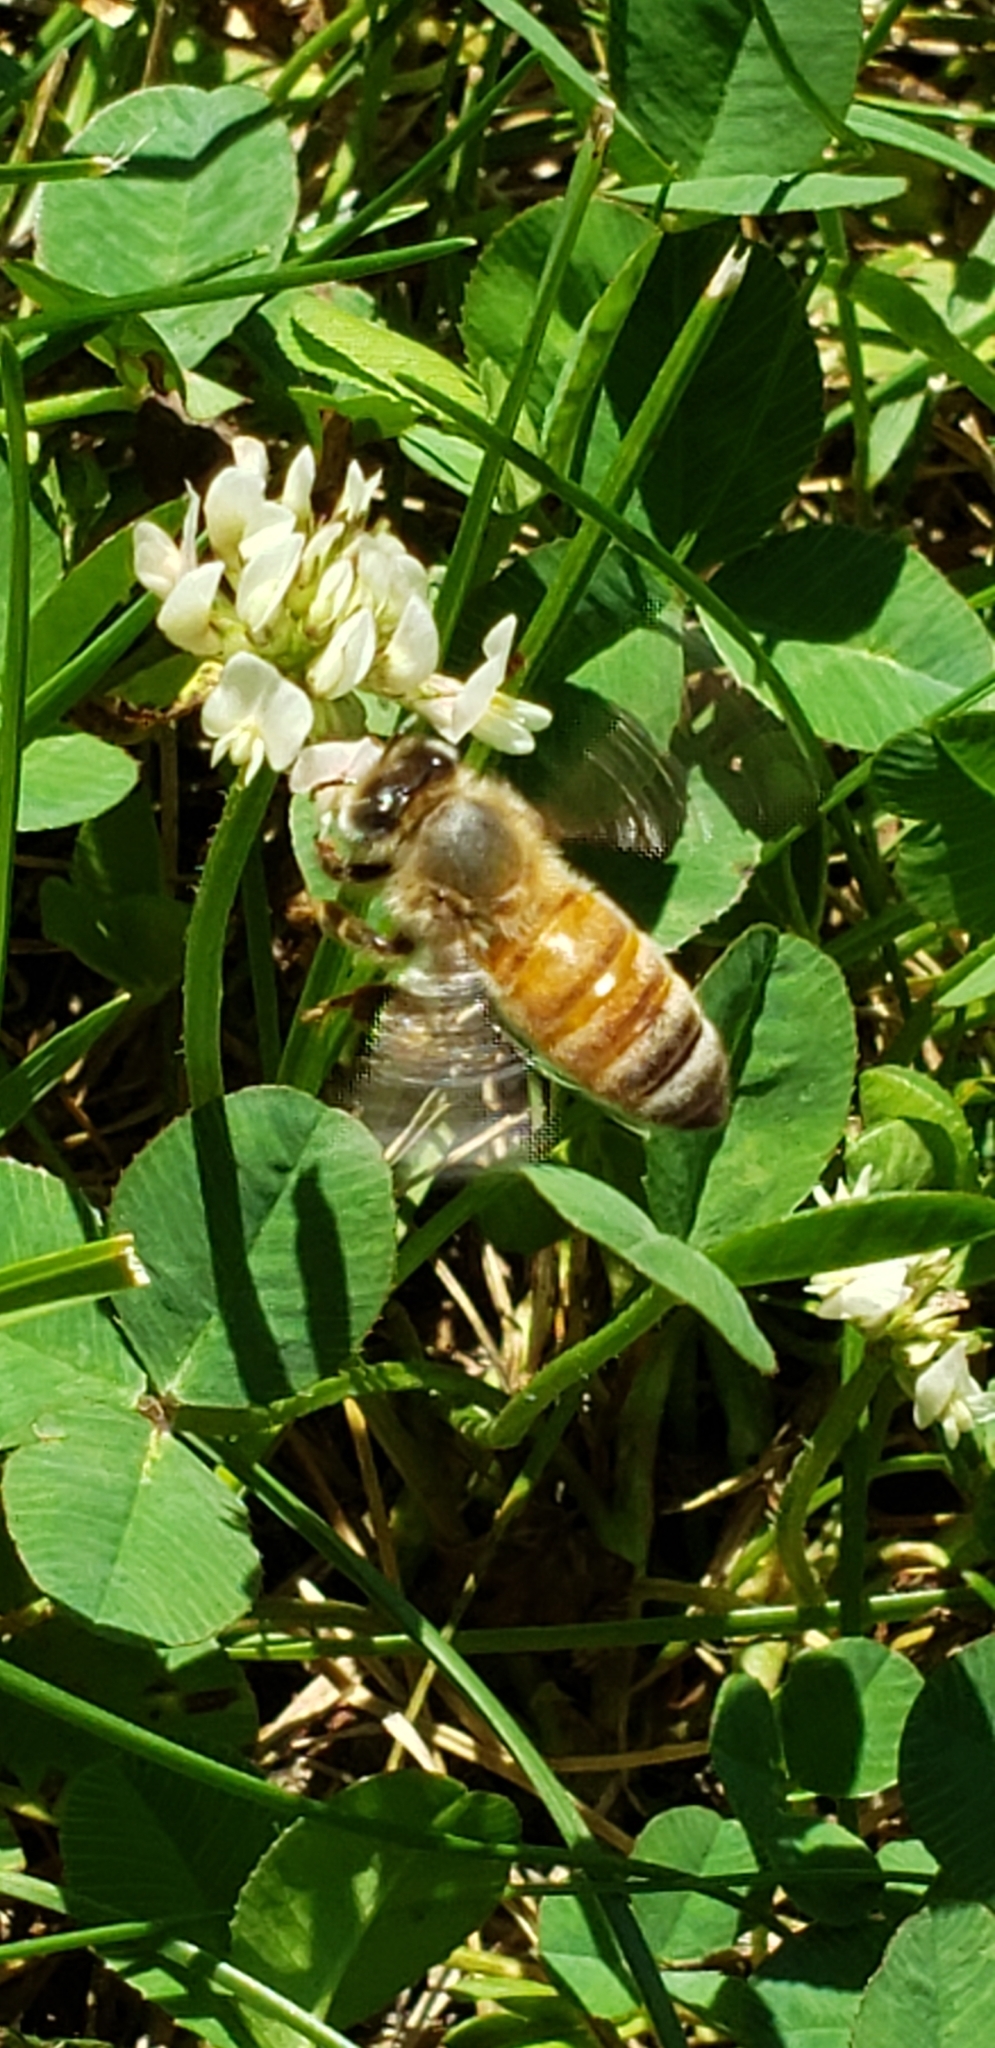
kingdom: Animalia
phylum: Arthropoda
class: Insecta
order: Hymenoptera
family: Apidae
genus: Apis
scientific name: Apis mellifera
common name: Honey bee
